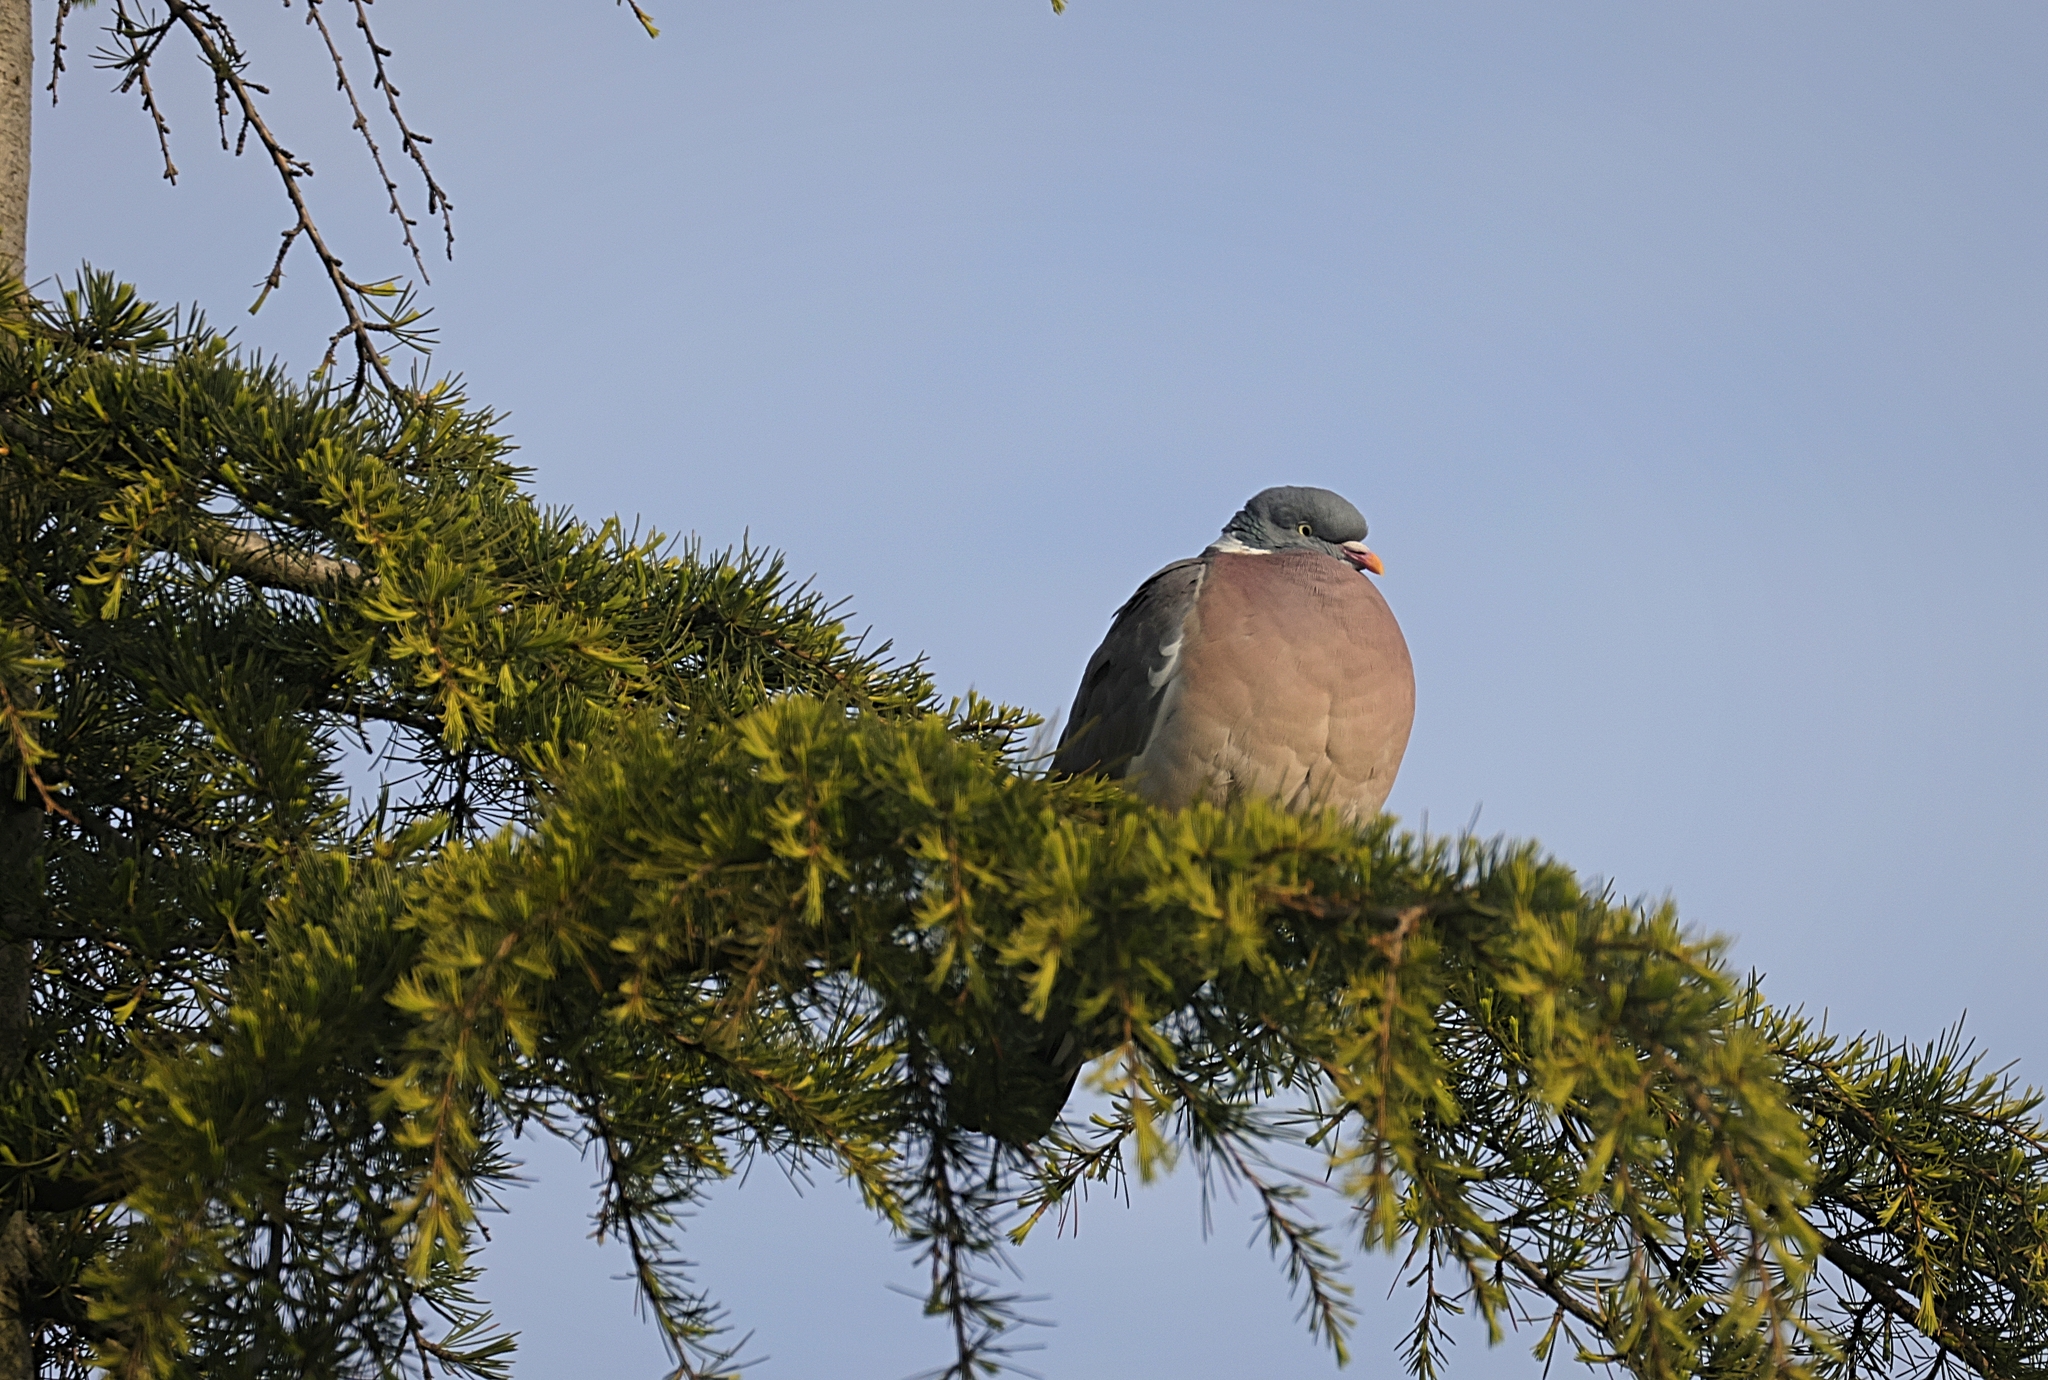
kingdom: Animalia
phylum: Chordata
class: Aves
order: Columbiformes
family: Columbidae
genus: Columba
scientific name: Columba palumbus
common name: Common wood pigeon
